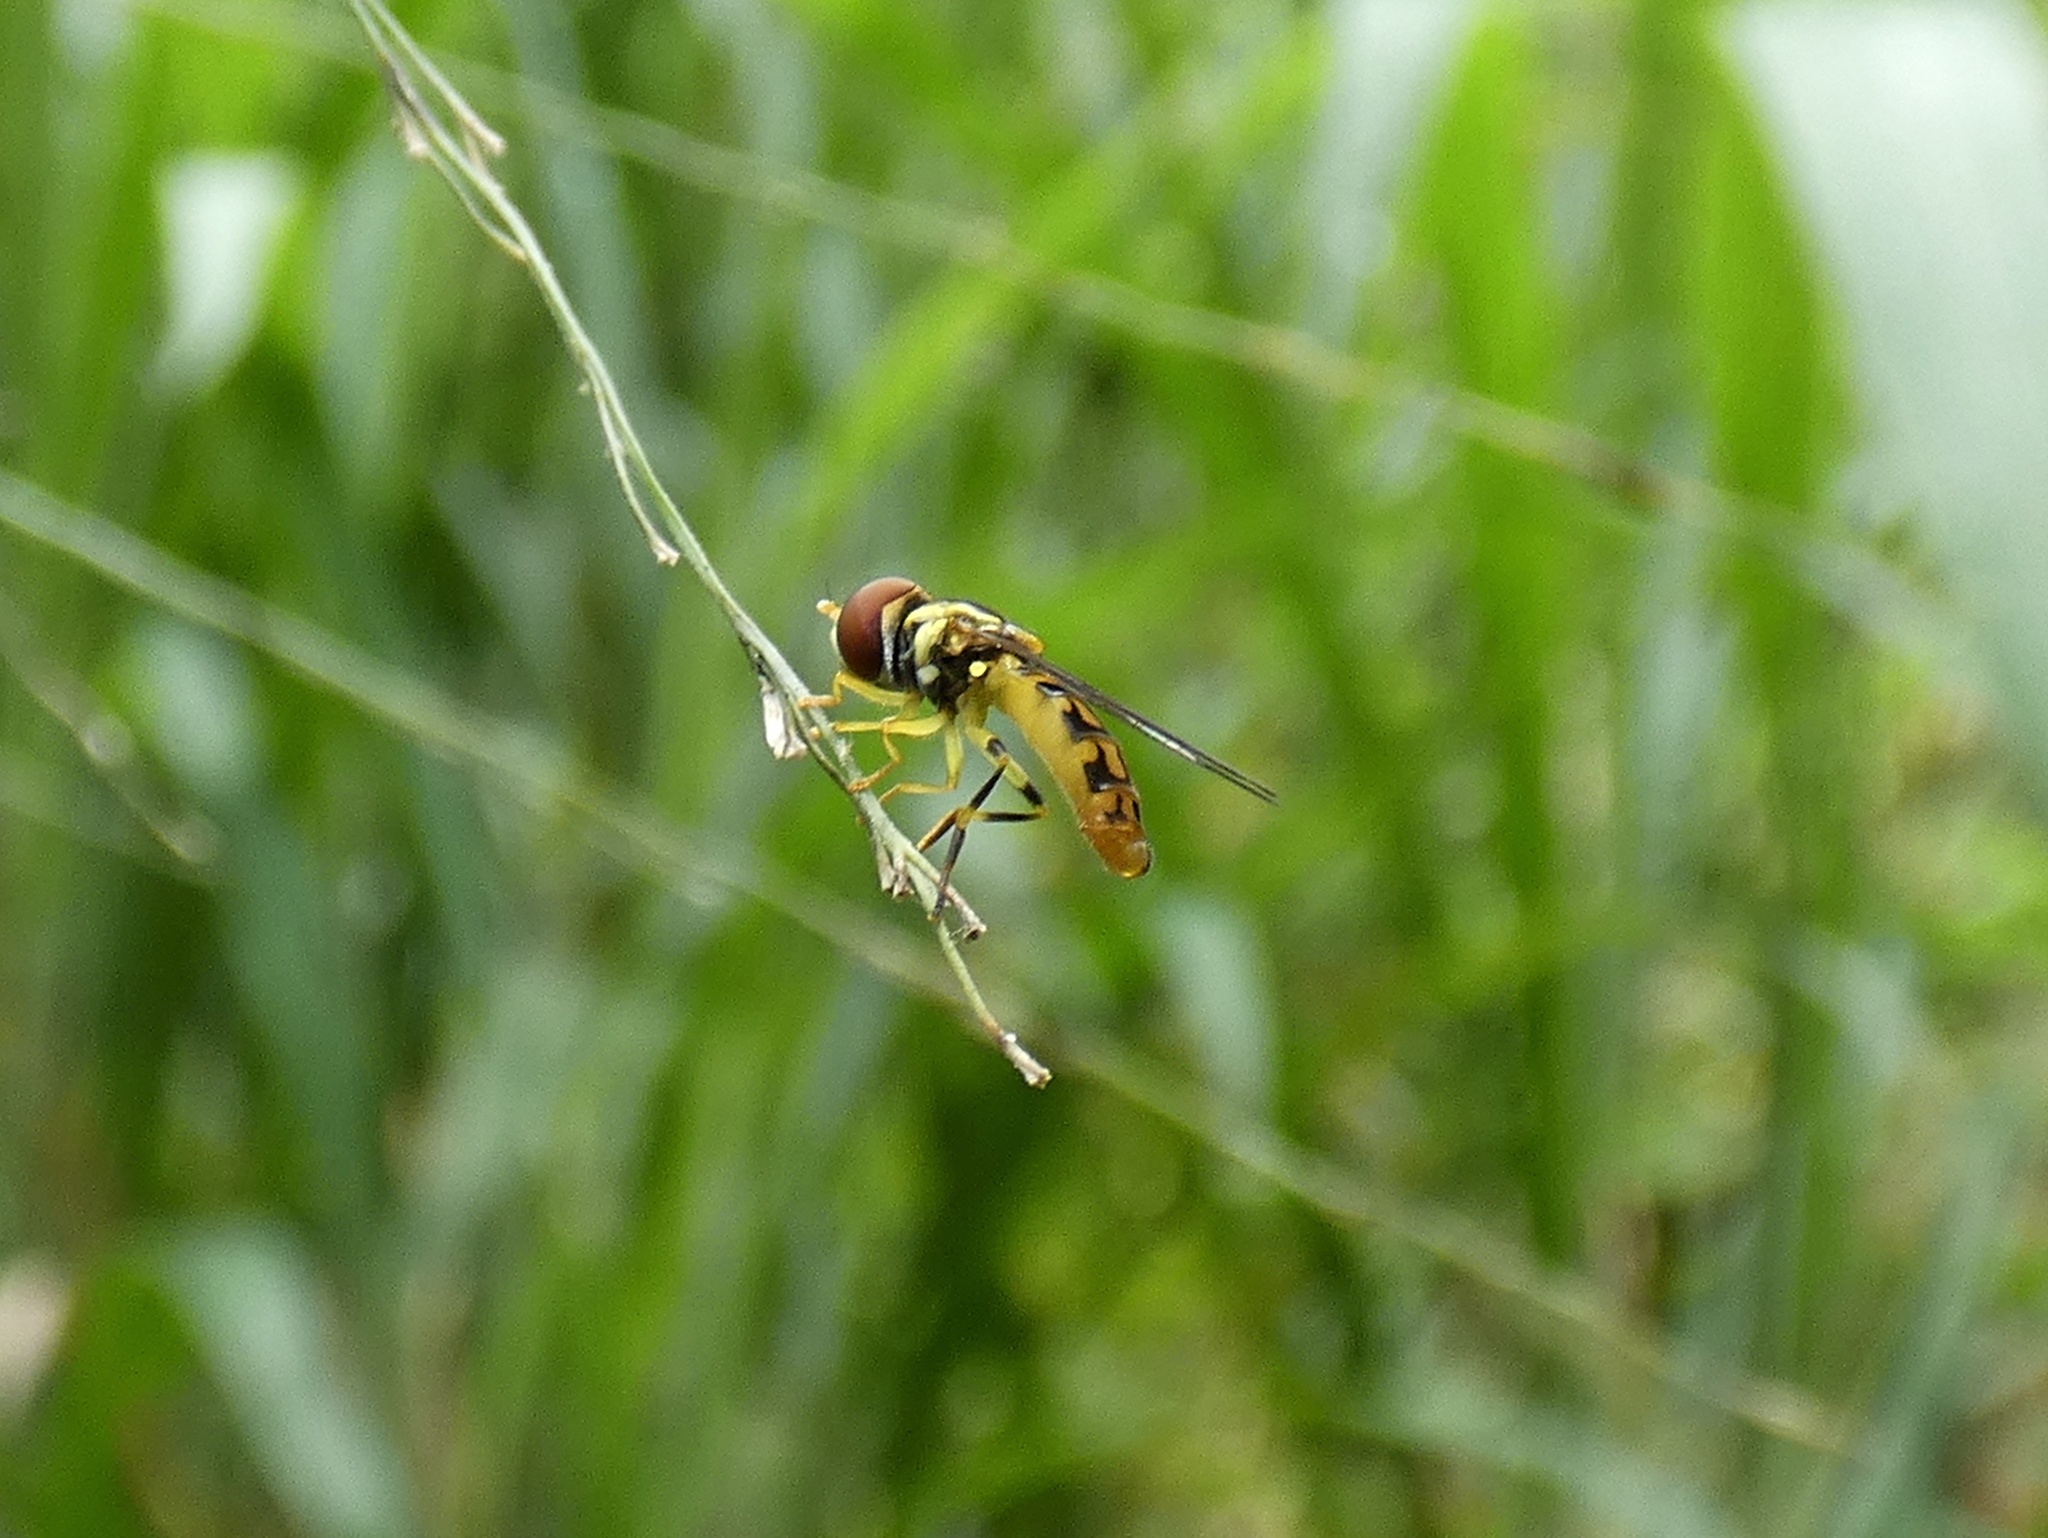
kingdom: Animalia
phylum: Arthropoda
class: Insecta
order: Diptera
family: Syrphidae
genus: Toxomerus
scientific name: Toxomerus pictus
